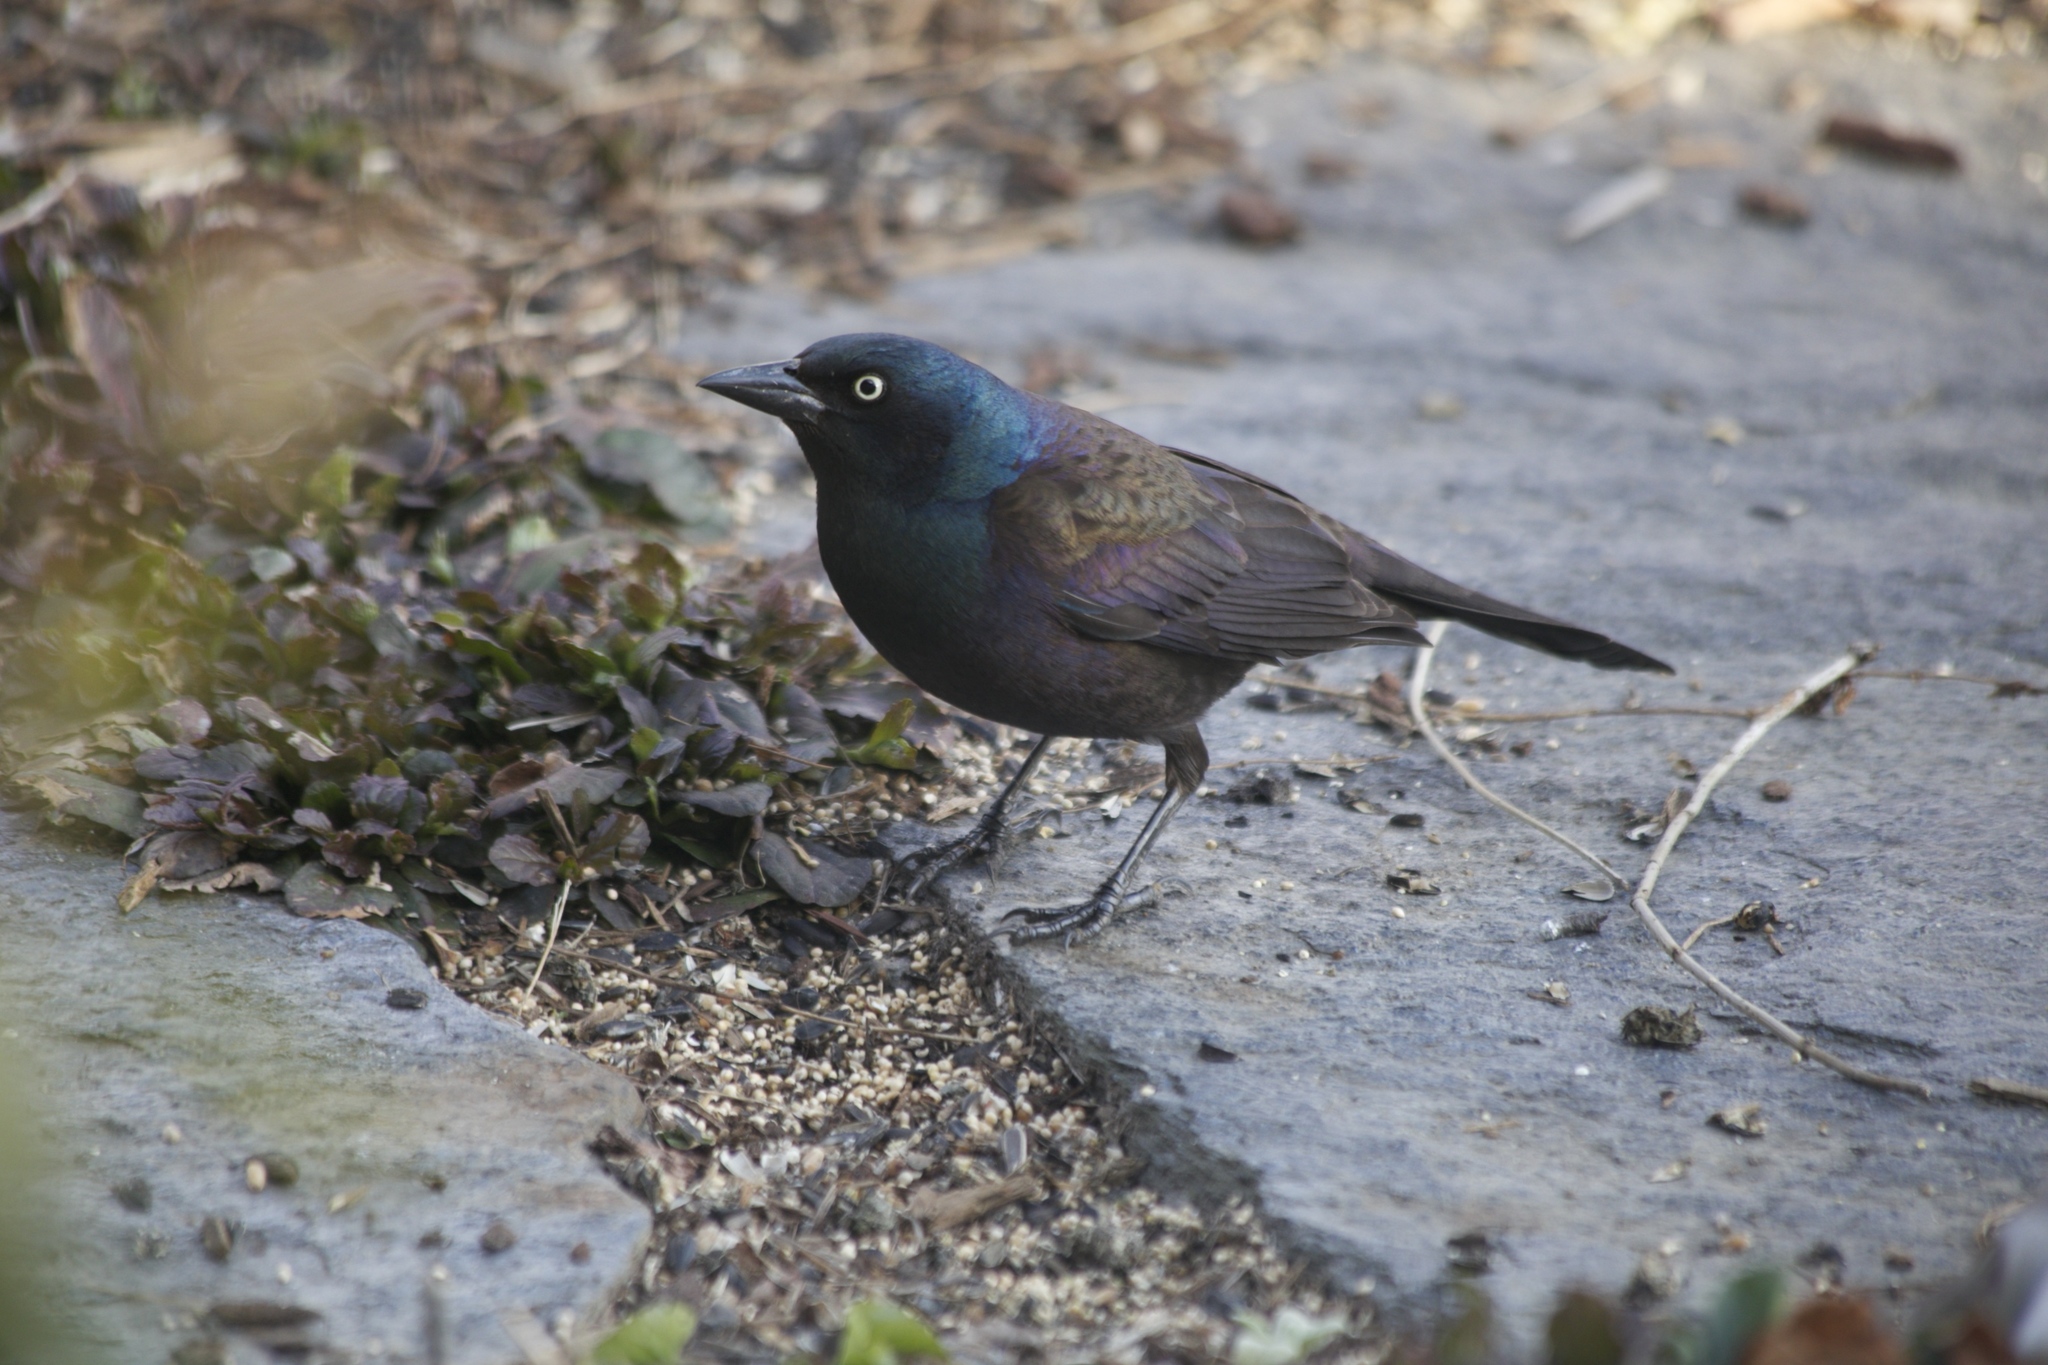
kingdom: Animalia
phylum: Chordata
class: Aves
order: Passeriformes
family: Icteridae
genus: Quiscalus
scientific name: Quiscalus quiscula
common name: Common grackle
